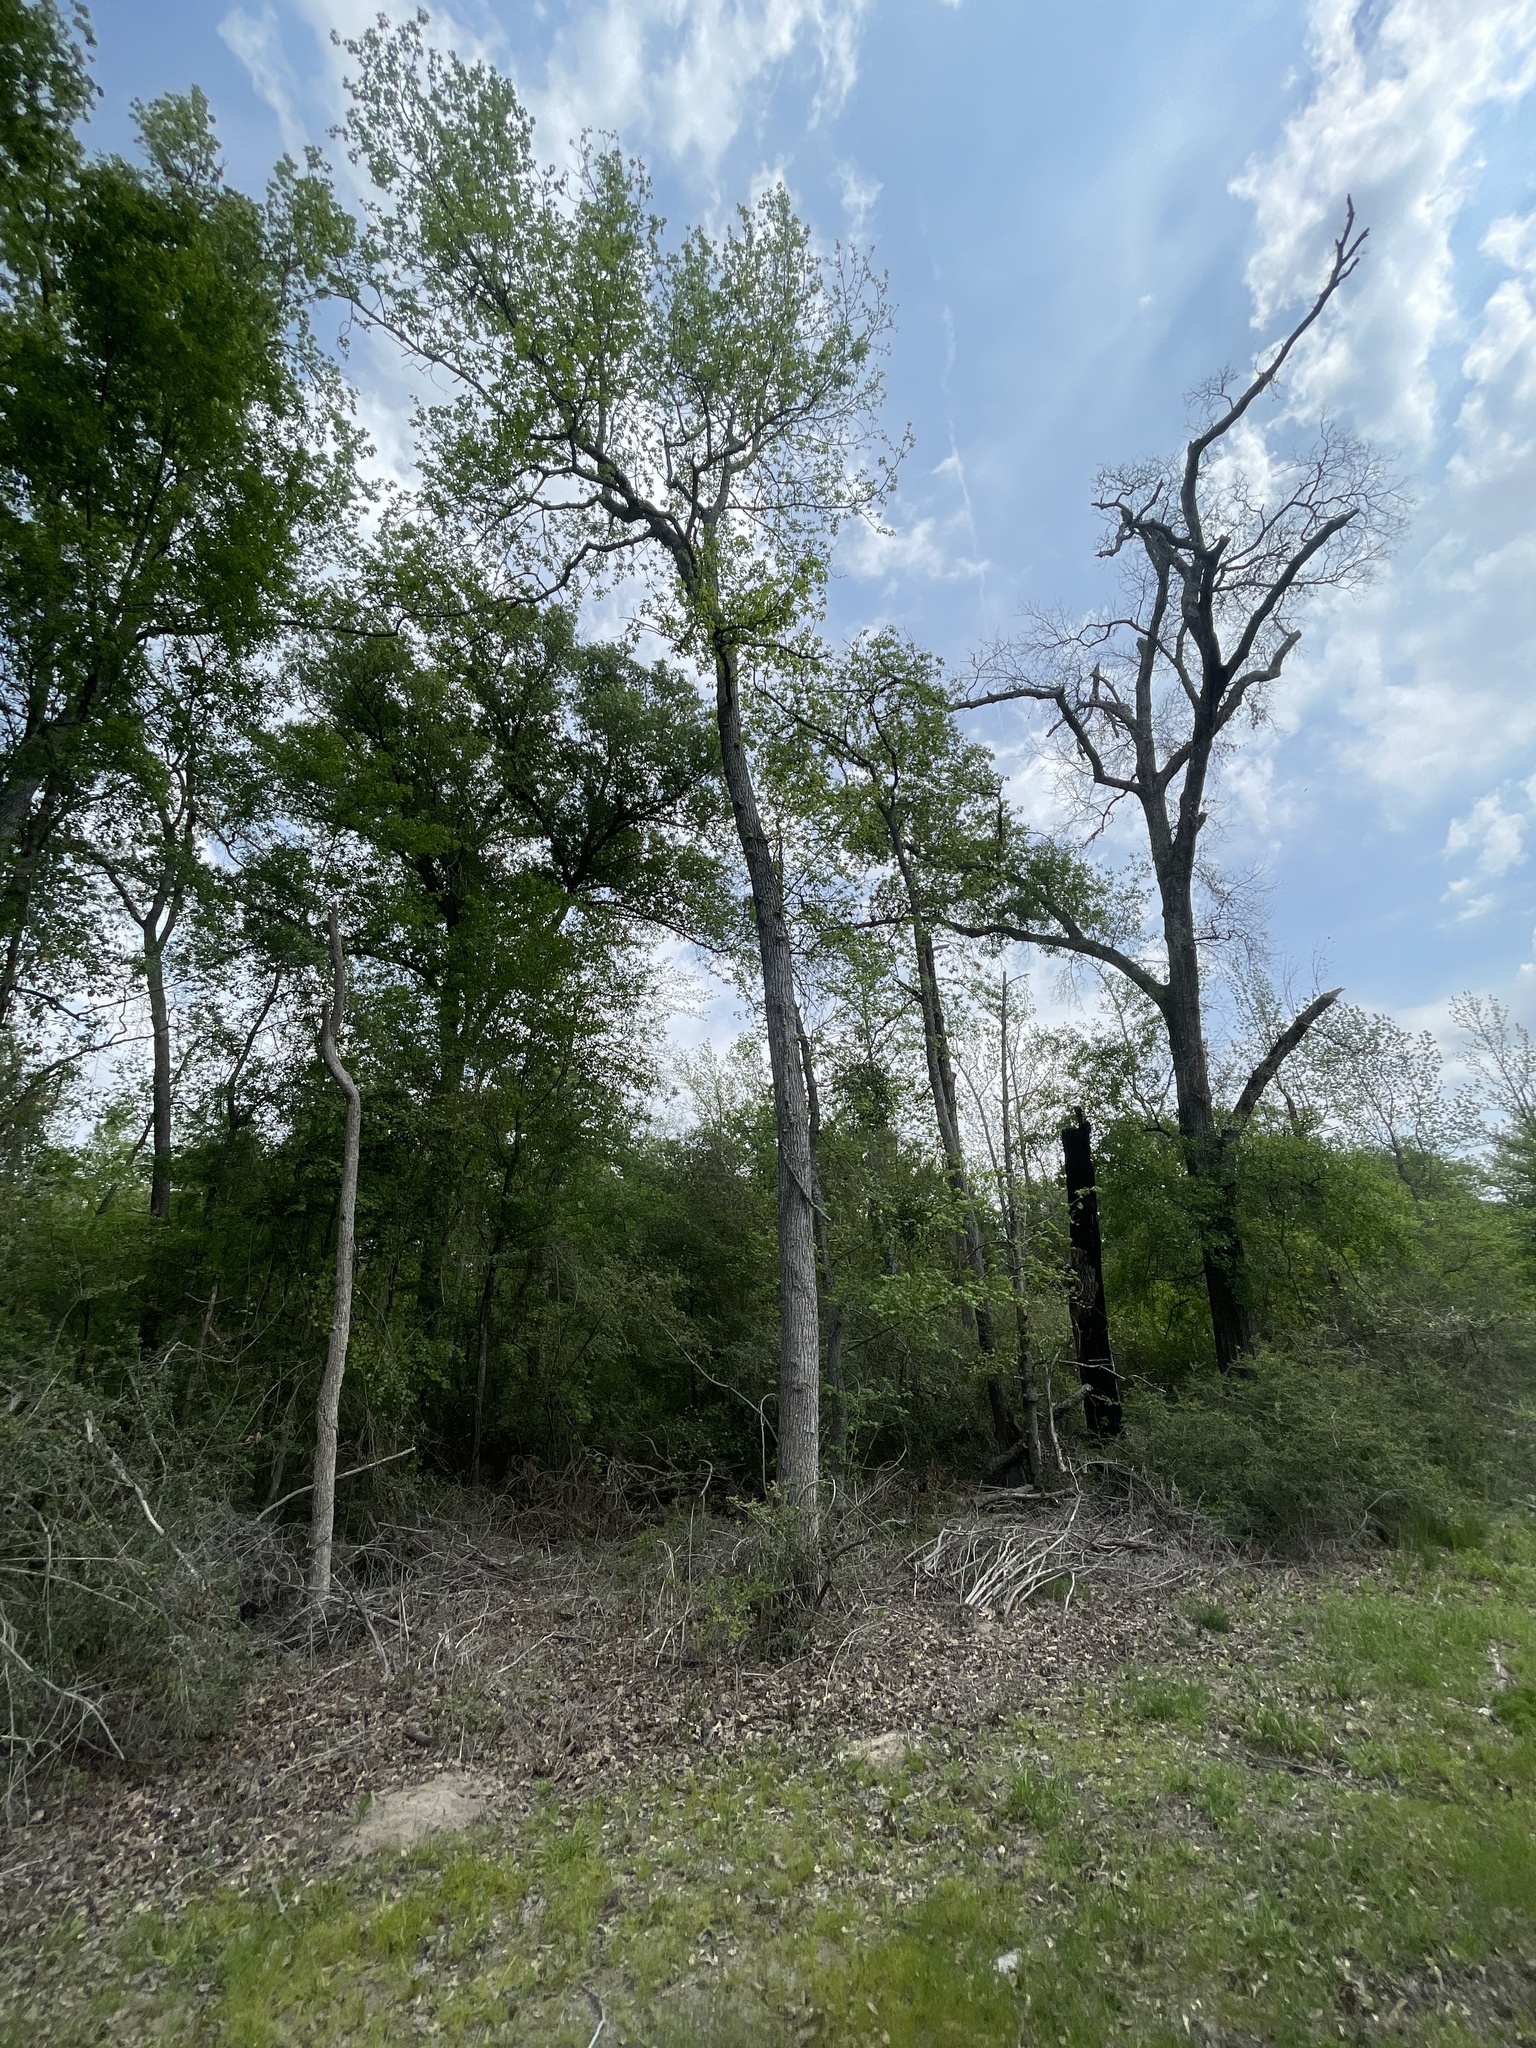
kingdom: Plantae
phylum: Tracheophyta
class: Magnoliopsida
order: Saxifragales
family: Altingiaceae
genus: Liquidambar
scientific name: Liquidambar styraciflua
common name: Sweet gum
